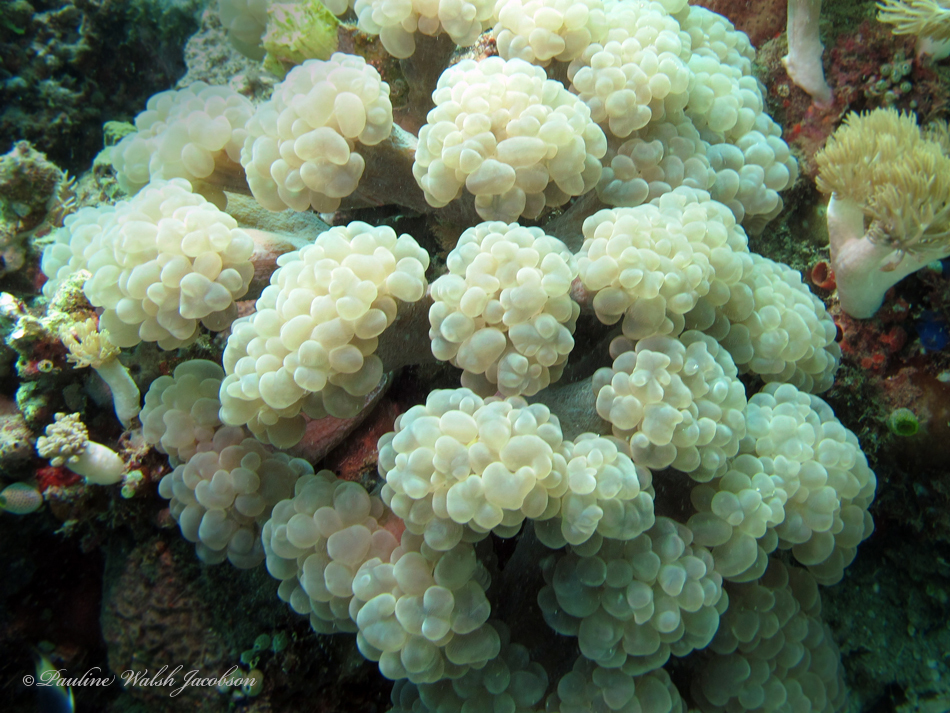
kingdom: Animalia
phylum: Cnidaria
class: Anthozoa
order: Scleractinia
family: Plerogyridae
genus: Plerogyra
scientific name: Plerogyra simplex
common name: Rounded bubblegum coral
